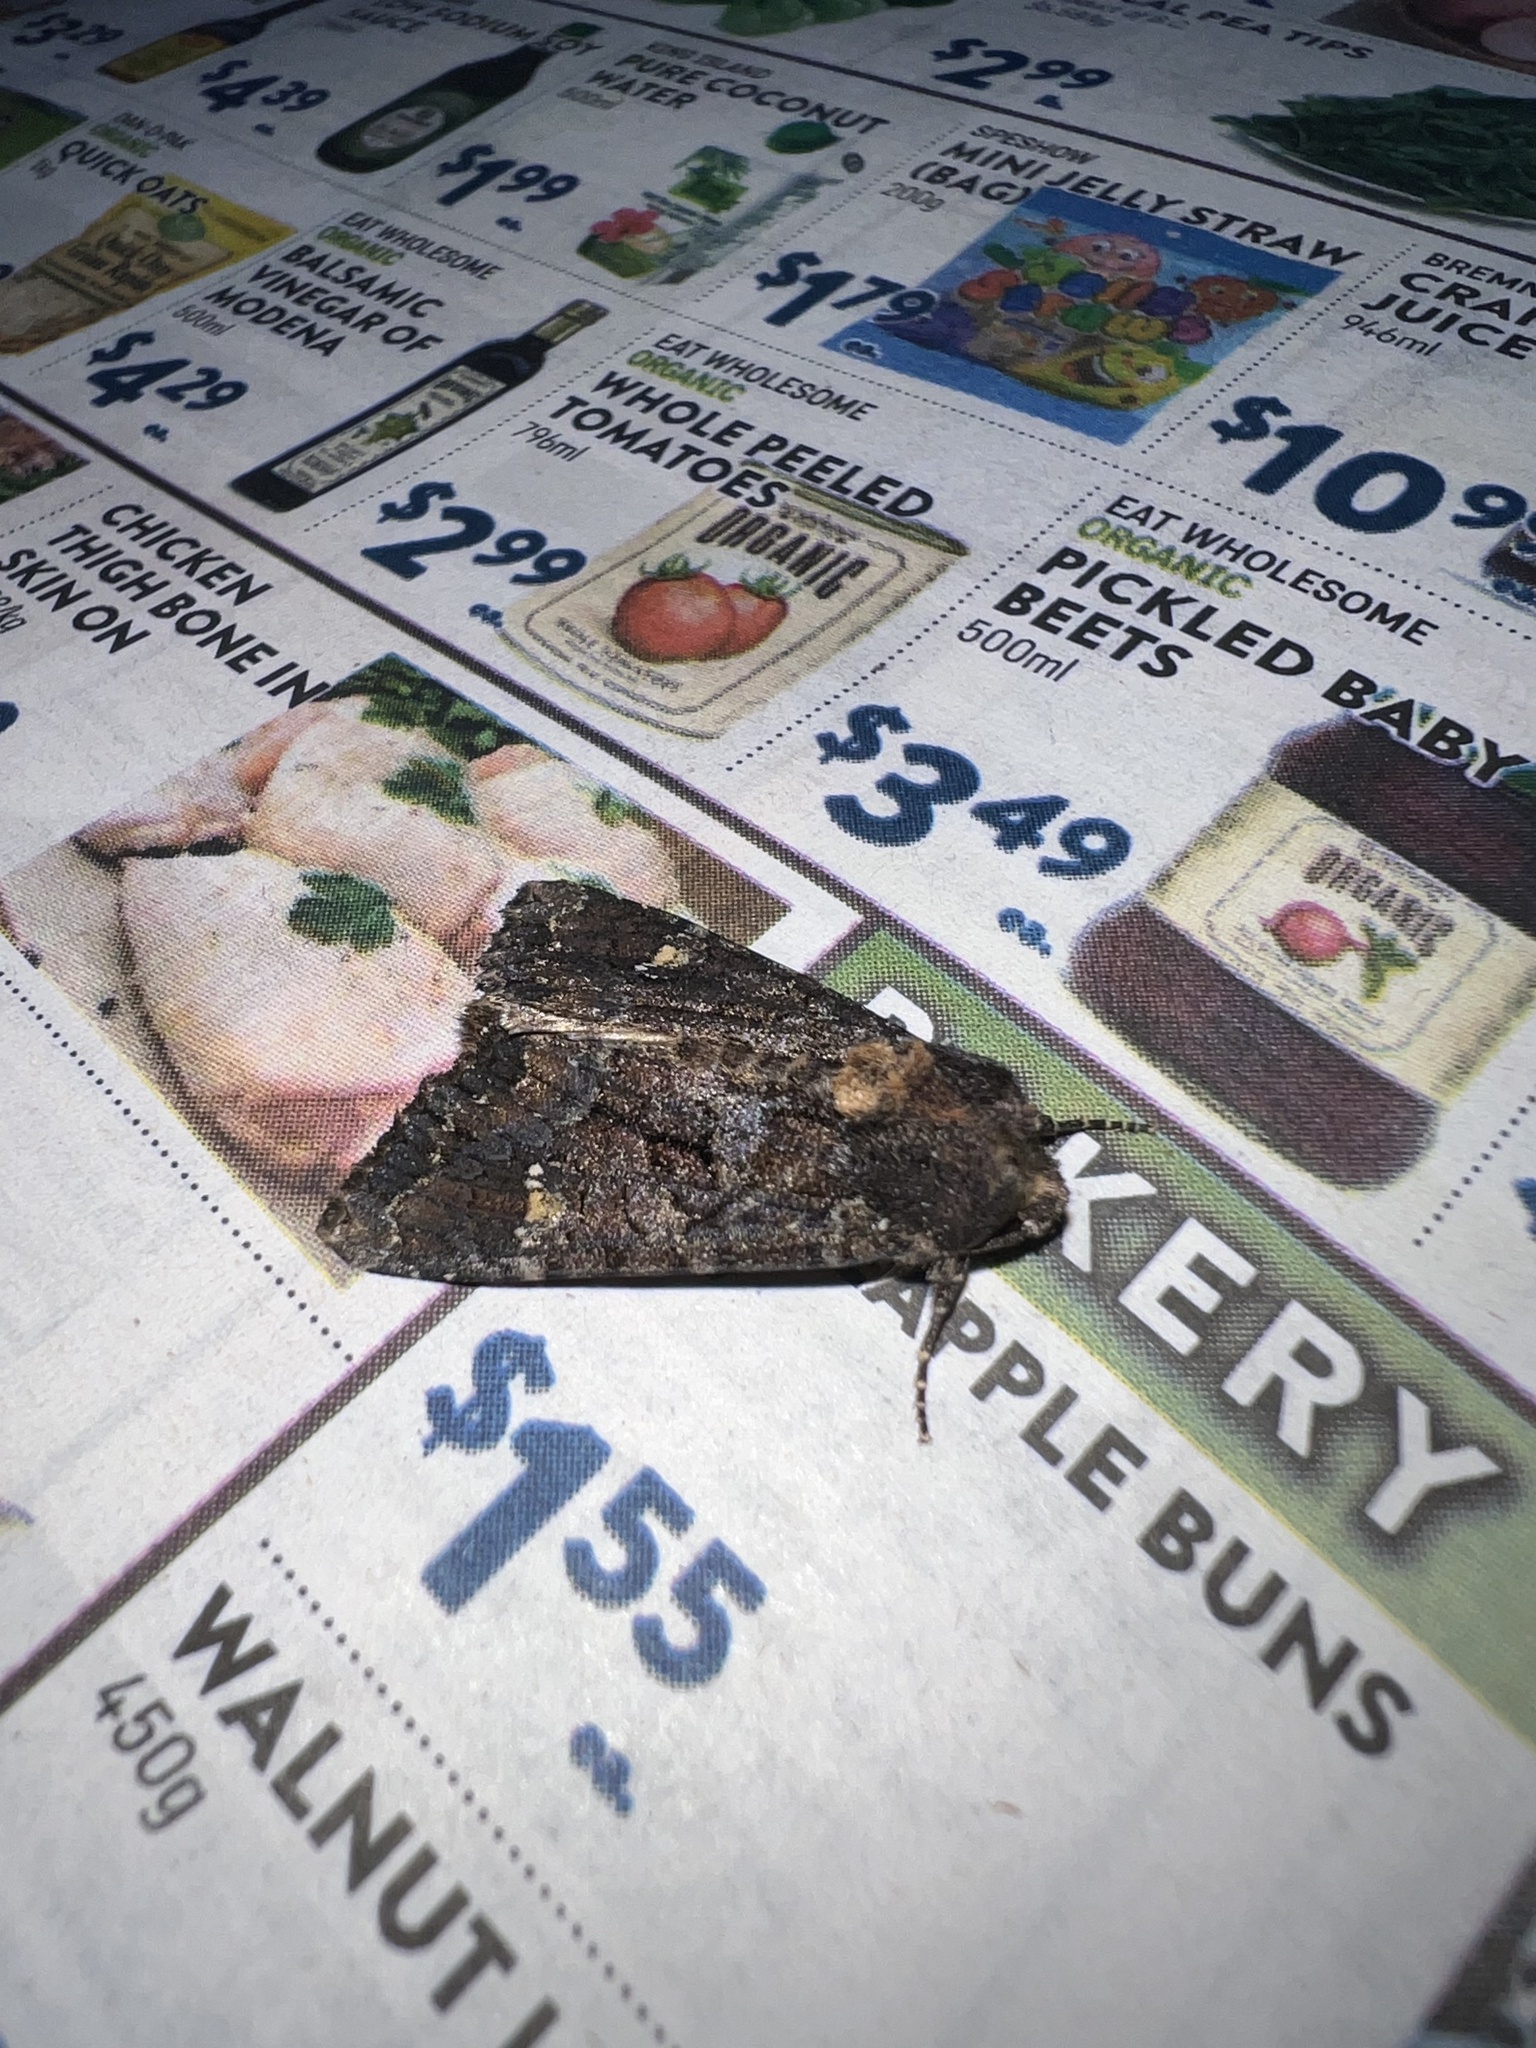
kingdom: Animalia
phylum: Arthropoda
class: Insecta
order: Lepidoptera
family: Noctuidae
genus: Apamea
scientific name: Apamea amputatrix
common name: Yellow-headed cutworm moth
